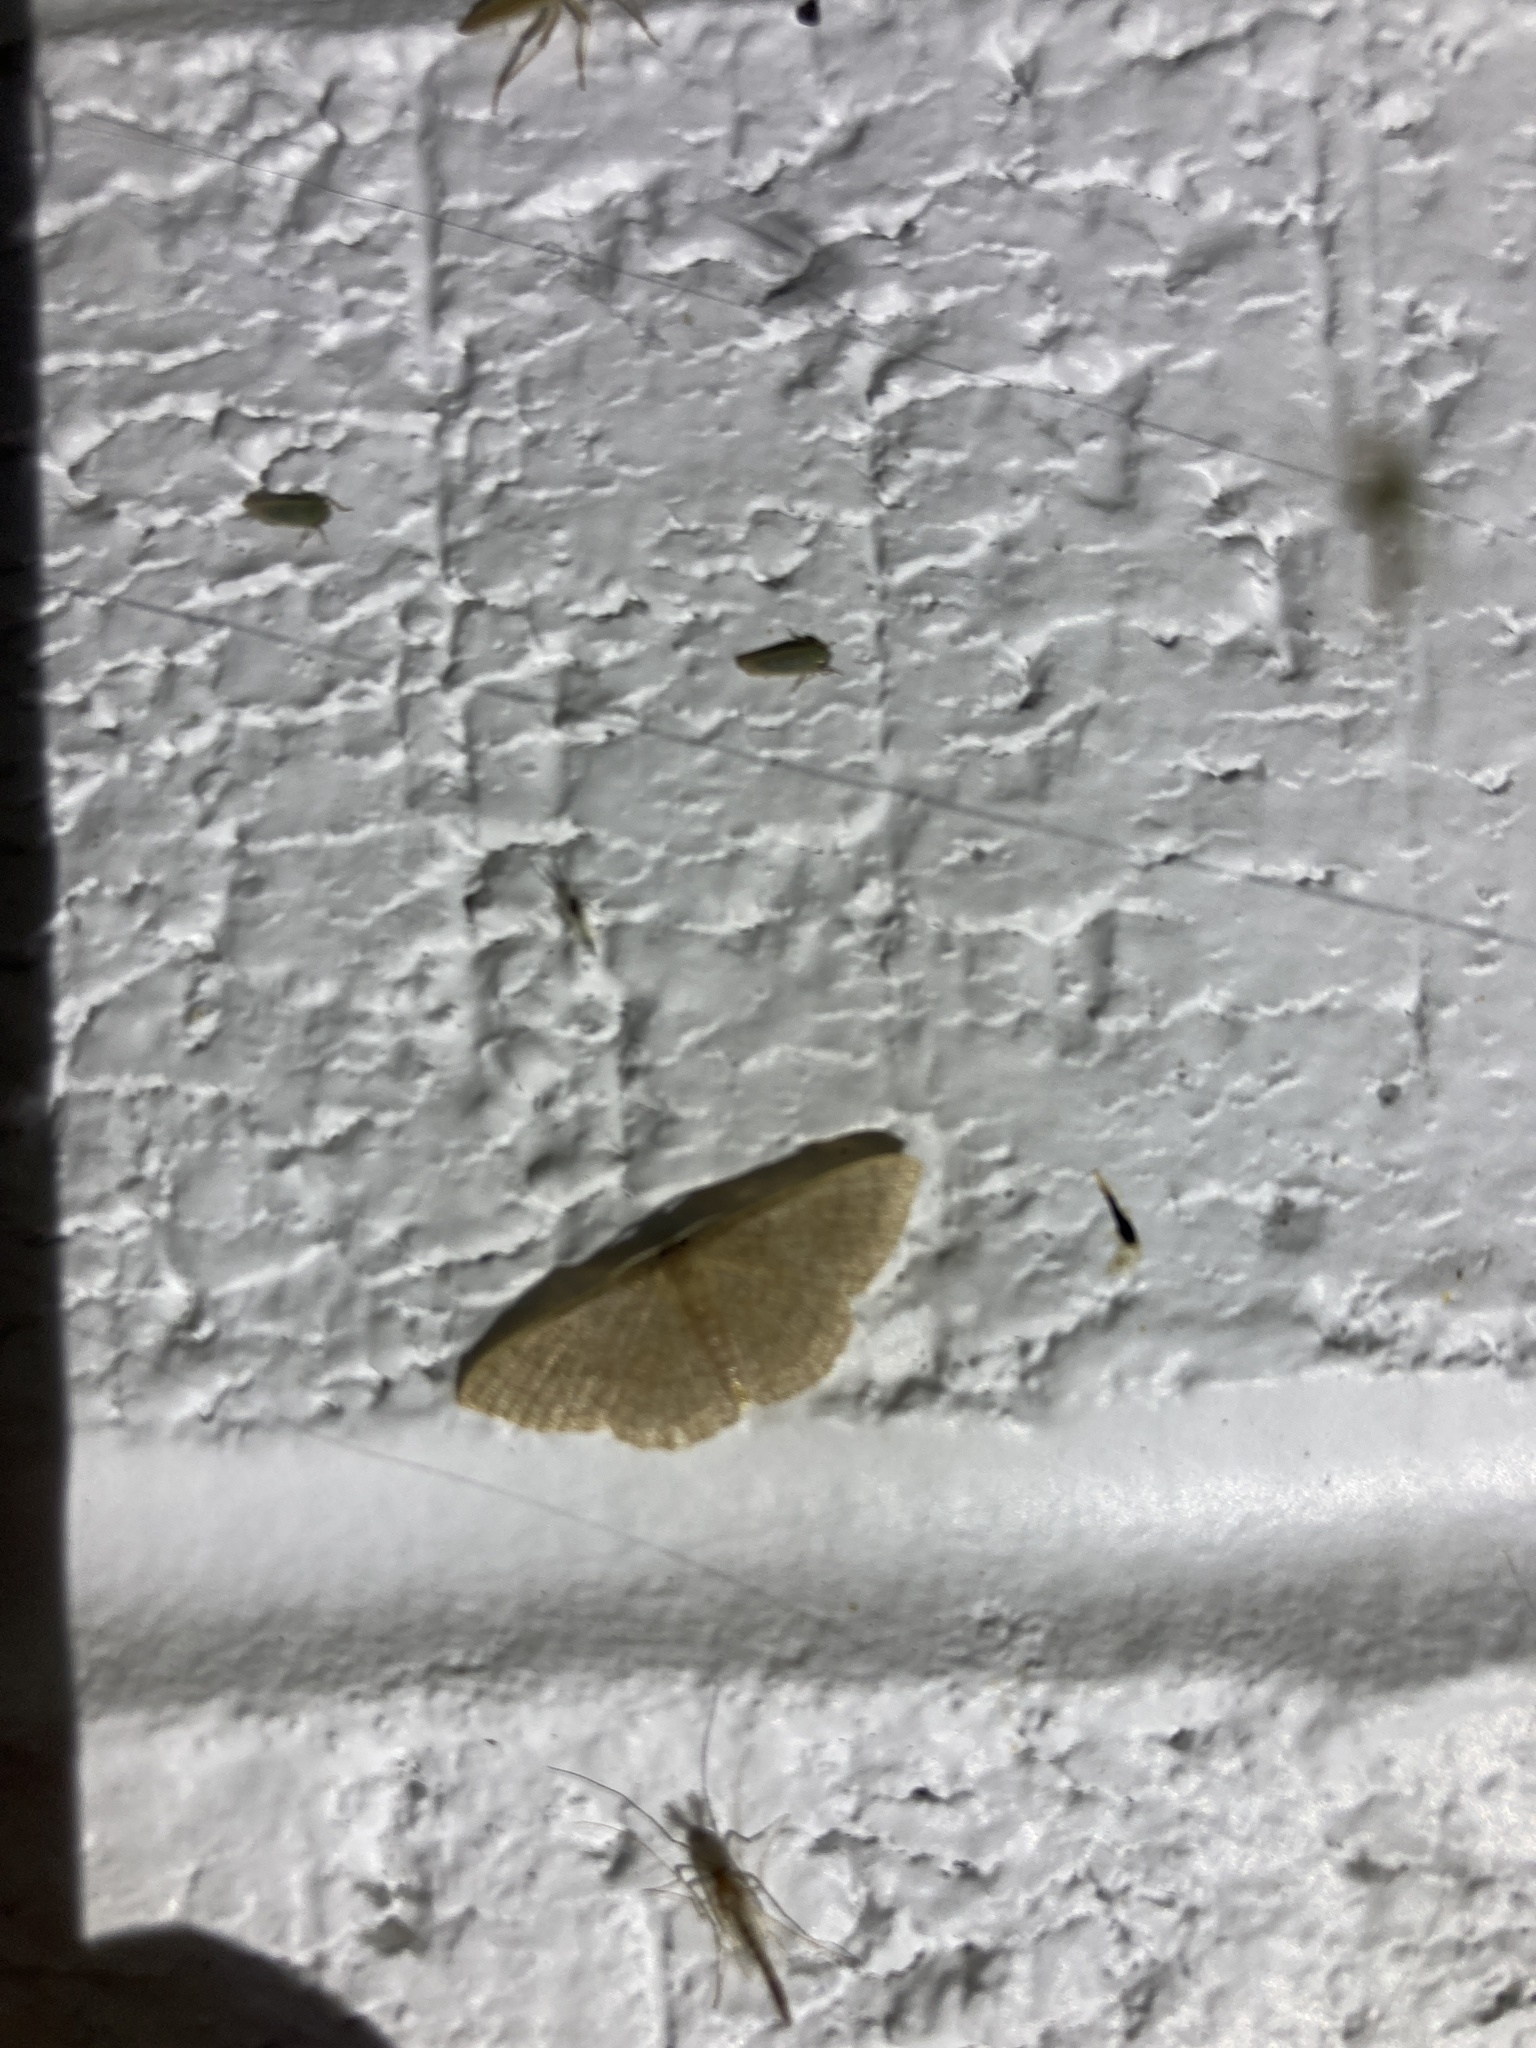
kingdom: Animalia
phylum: Arthropoda
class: Insecta
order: Lepidoptera
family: Geometridae
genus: Pleuroprucha
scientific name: Pleuroprucha insulsaria
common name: Common tan wave
